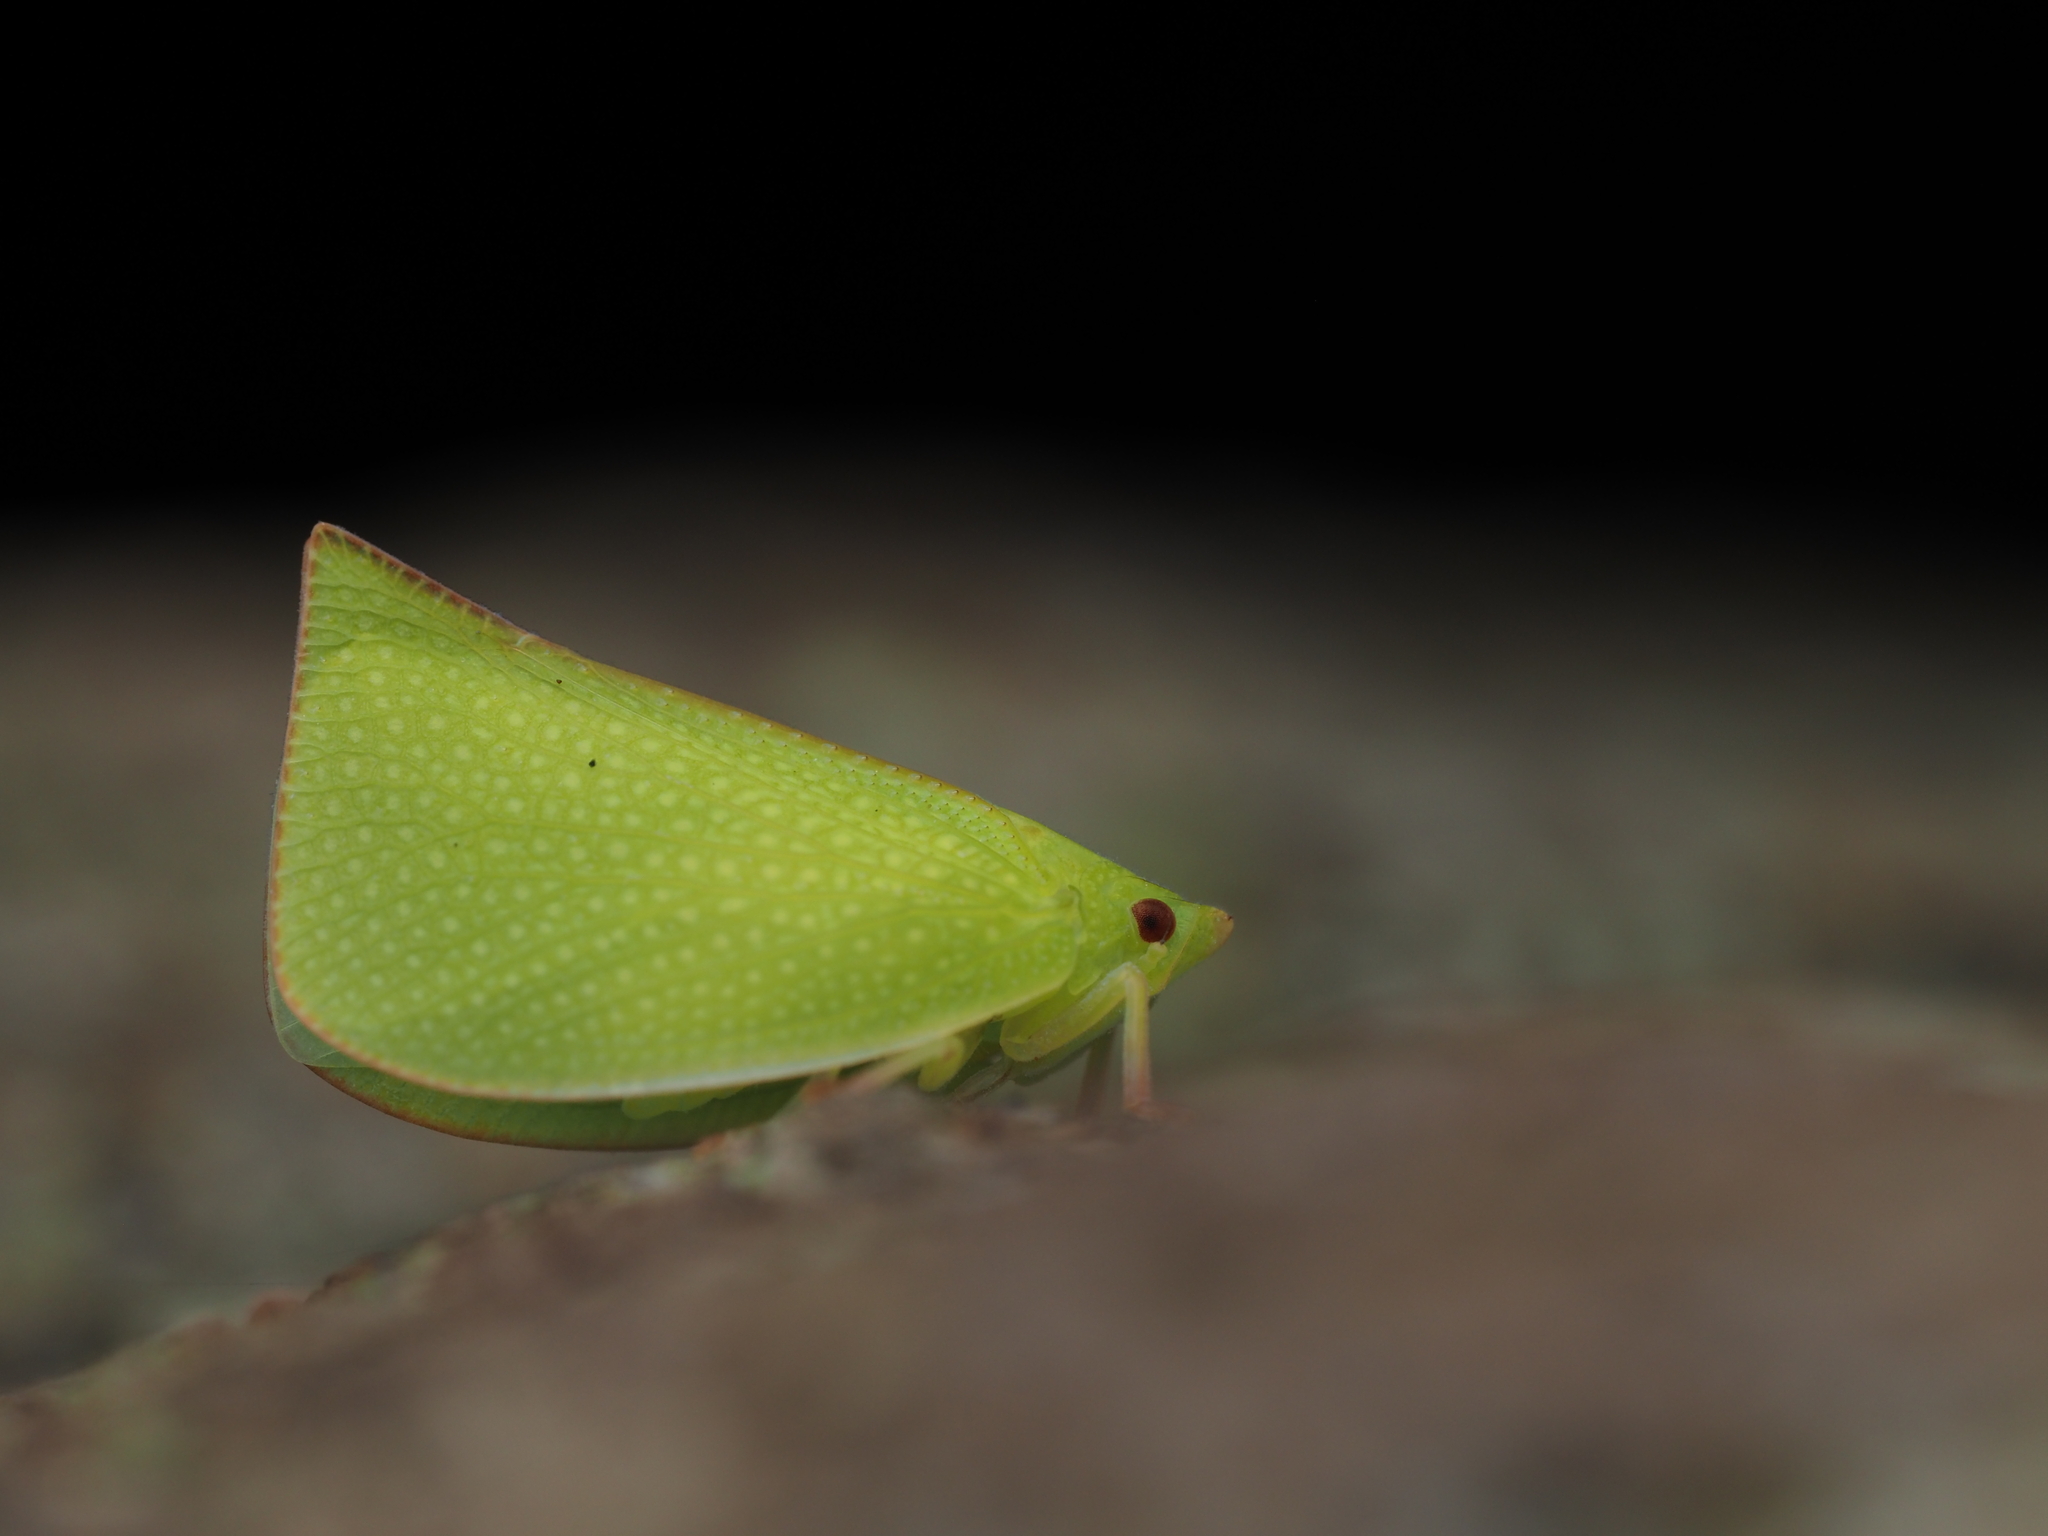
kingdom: Animalia
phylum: Arthropoda
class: Insecta
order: Hemiptera
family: Flatidae
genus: Siphanta
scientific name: Siphanta acuta
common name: Torpedo bug
